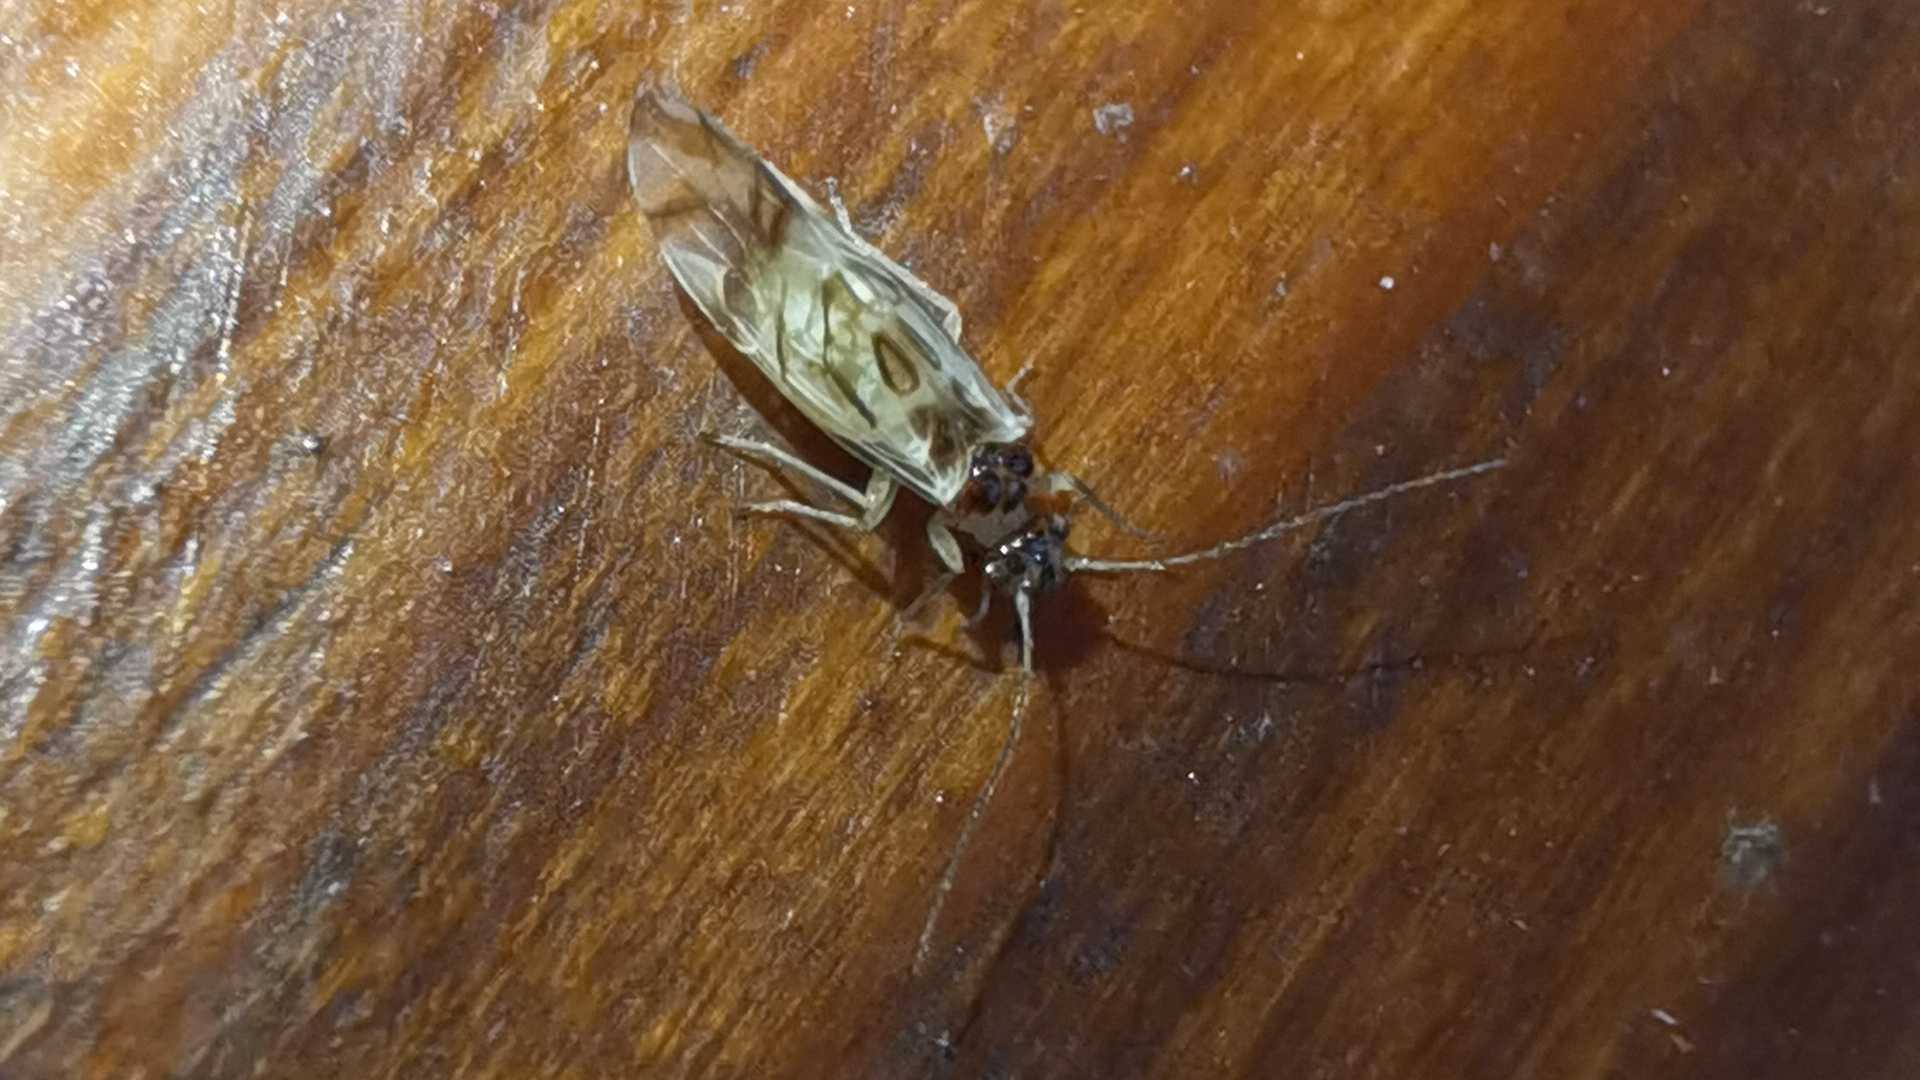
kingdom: Animalia
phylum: Arthropoda
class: Insecta
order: Psocodea
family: Stenopsocidae
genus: Graphopsocus
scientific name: Graphopsocus cruciatus
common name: Lizard bark louse
